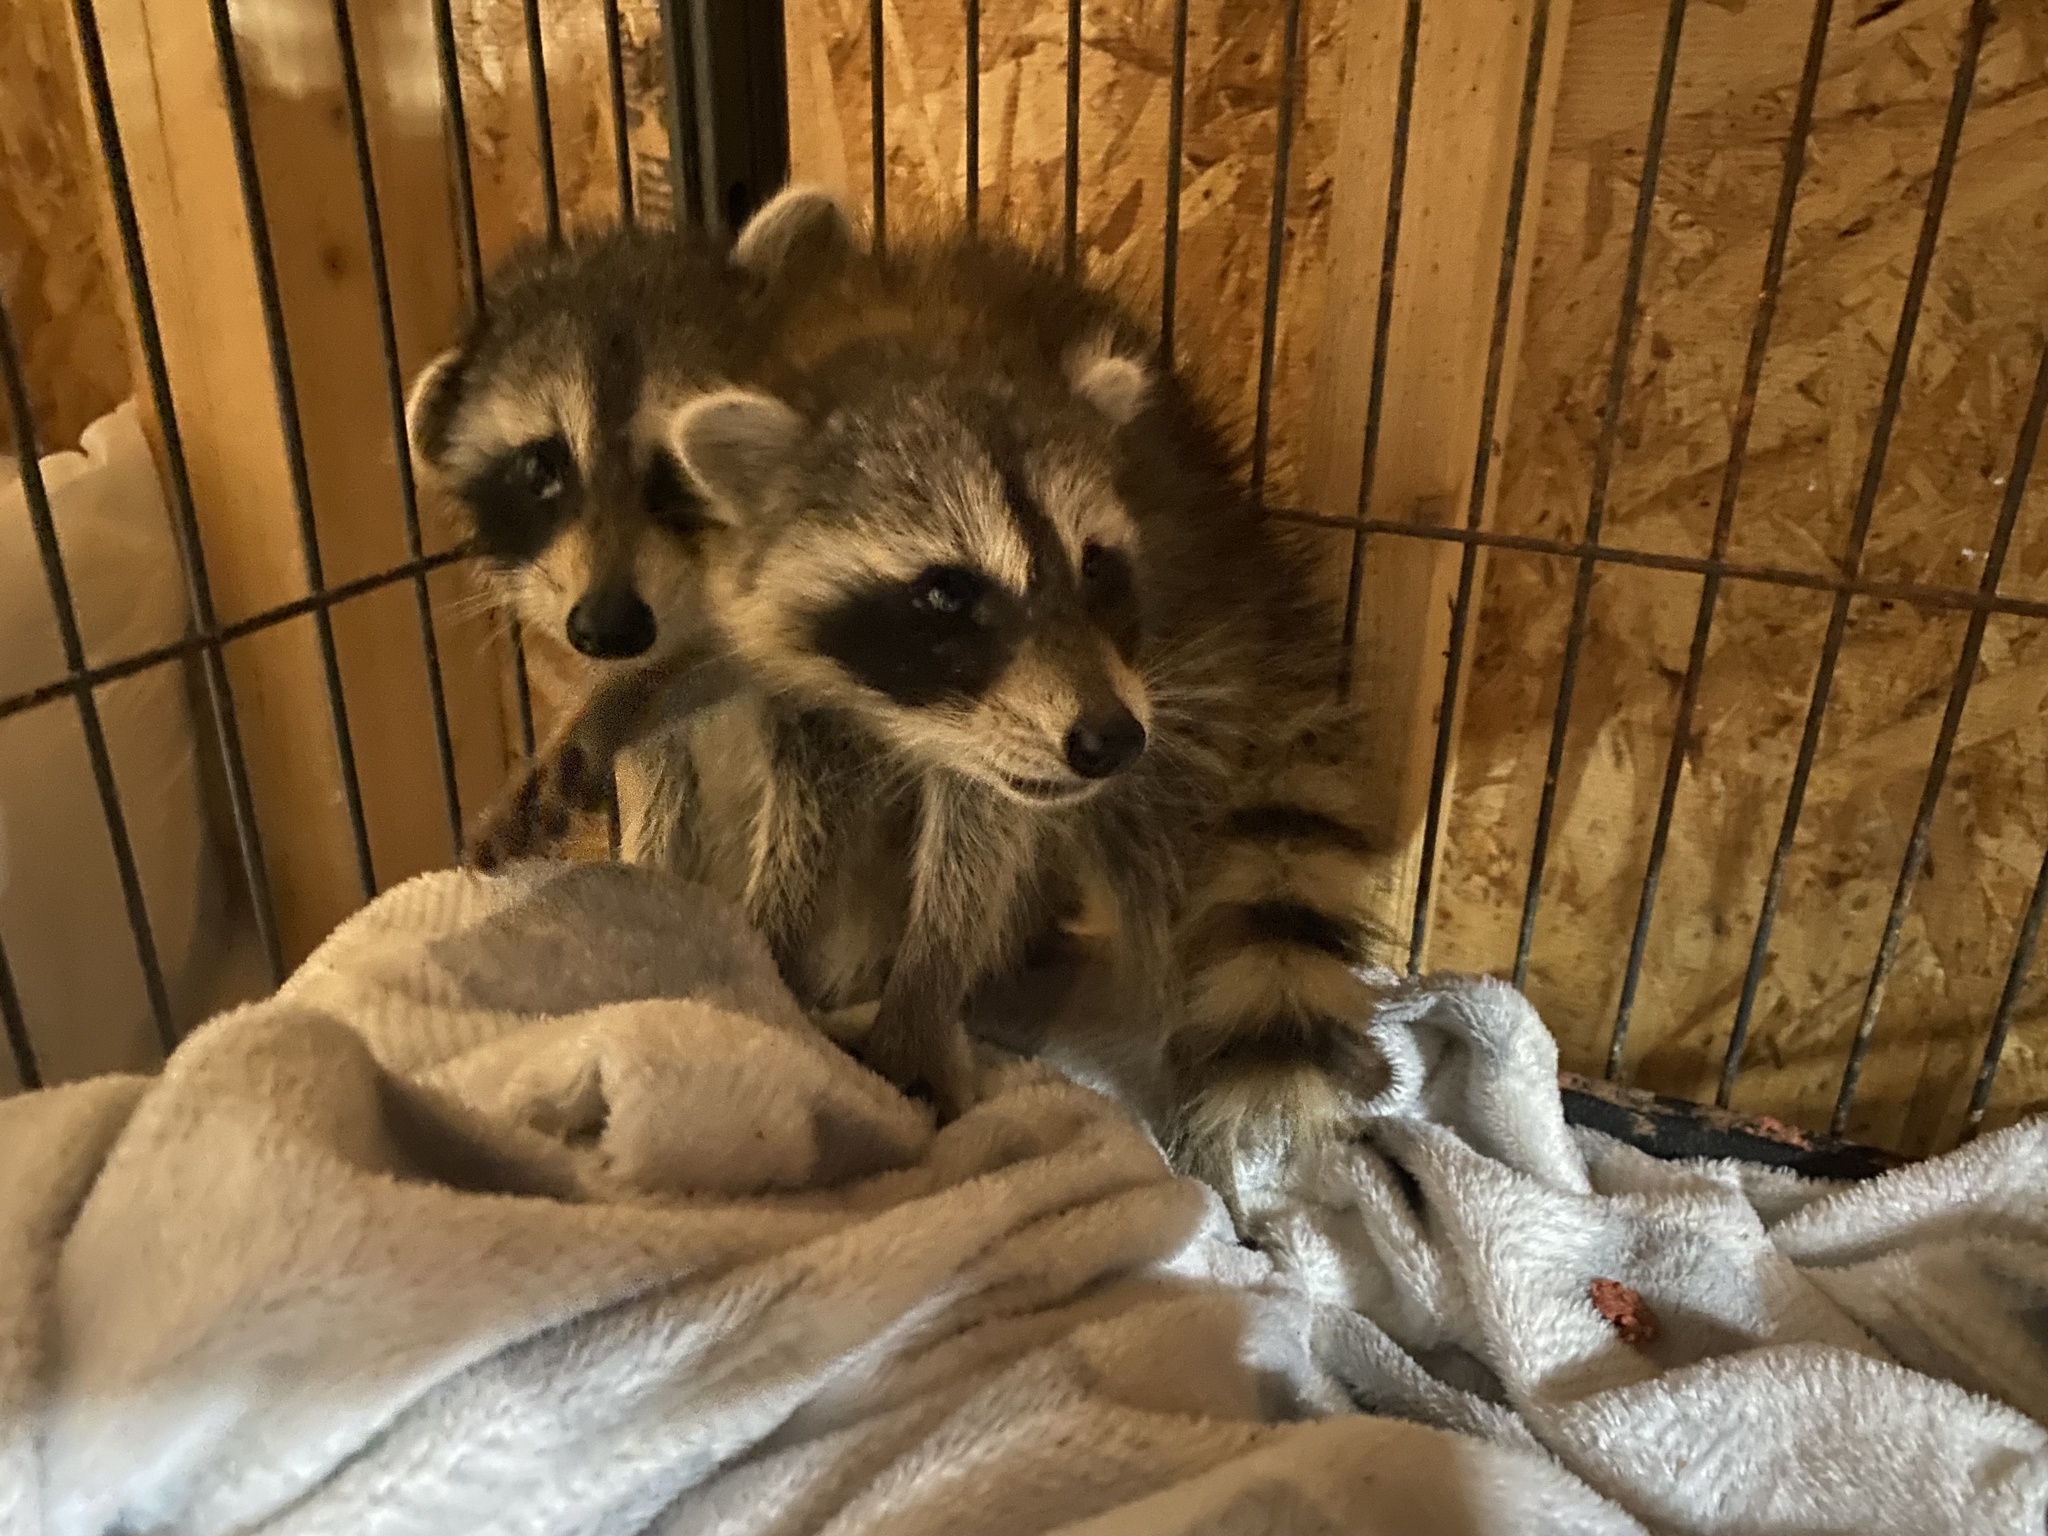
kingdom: Animalia
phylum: Chordata
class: Mammalia
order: Carnivora
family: Procyonidae
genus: Procyon
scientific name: Procyon lotor
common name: Raccoon
